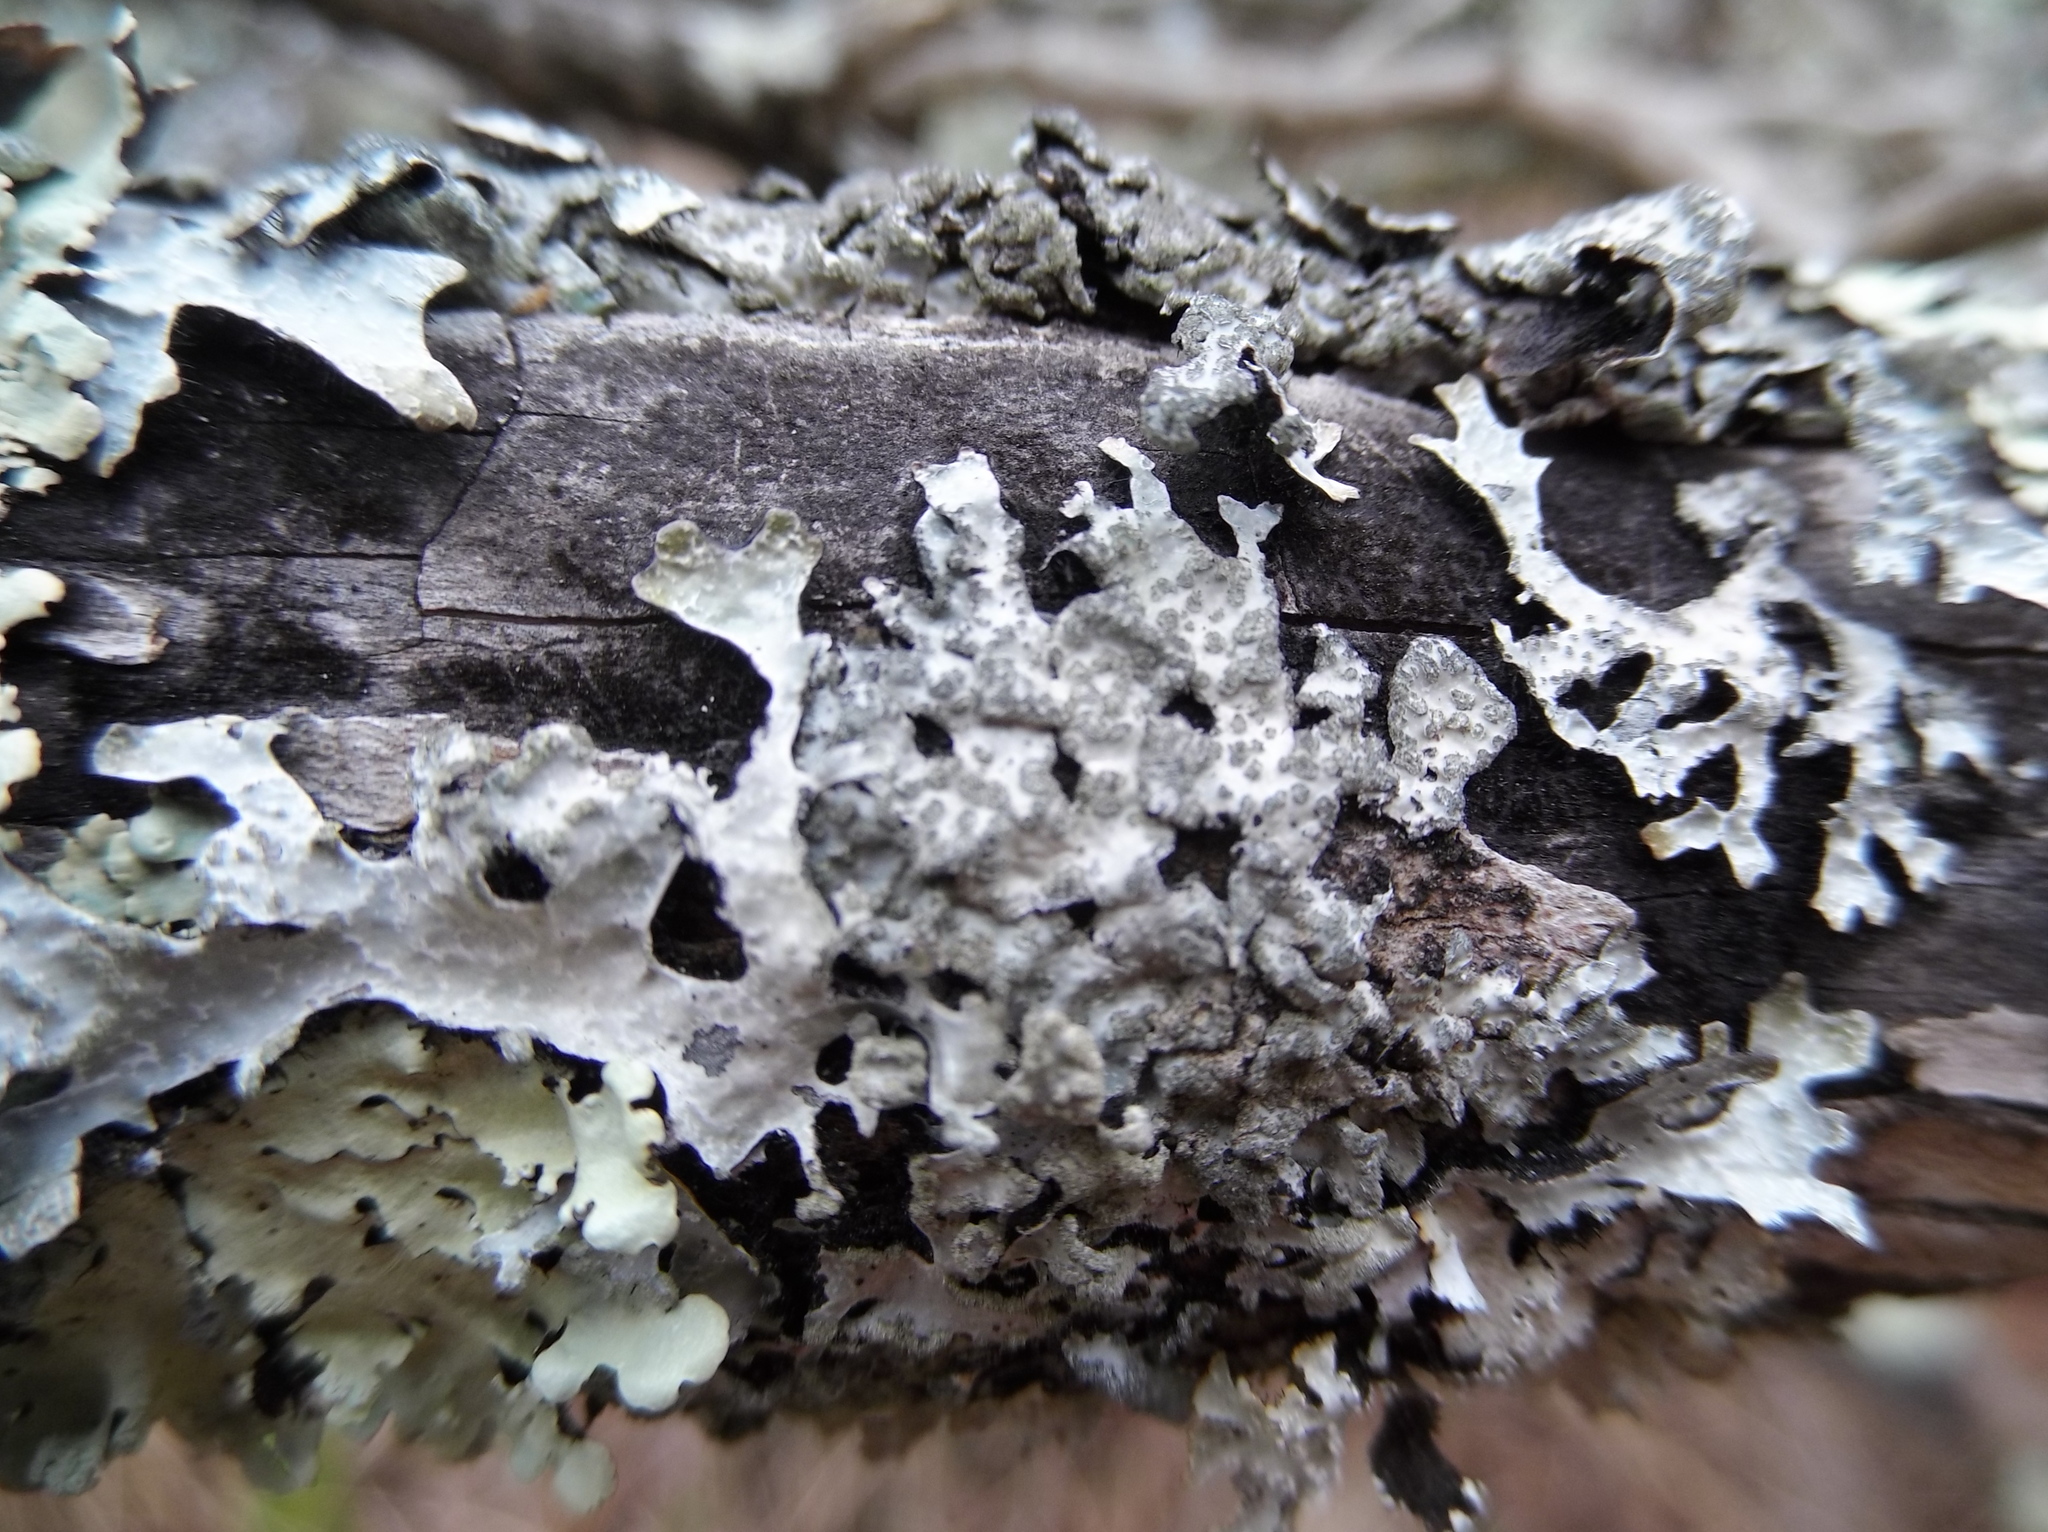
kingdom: Fungi
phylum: Ascomycota
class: Lecanoromycetes
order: Lecanorales
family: Parmeliaceae
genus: Parmelia
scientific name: Parmelia sulcata
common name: Netted shield lichen
